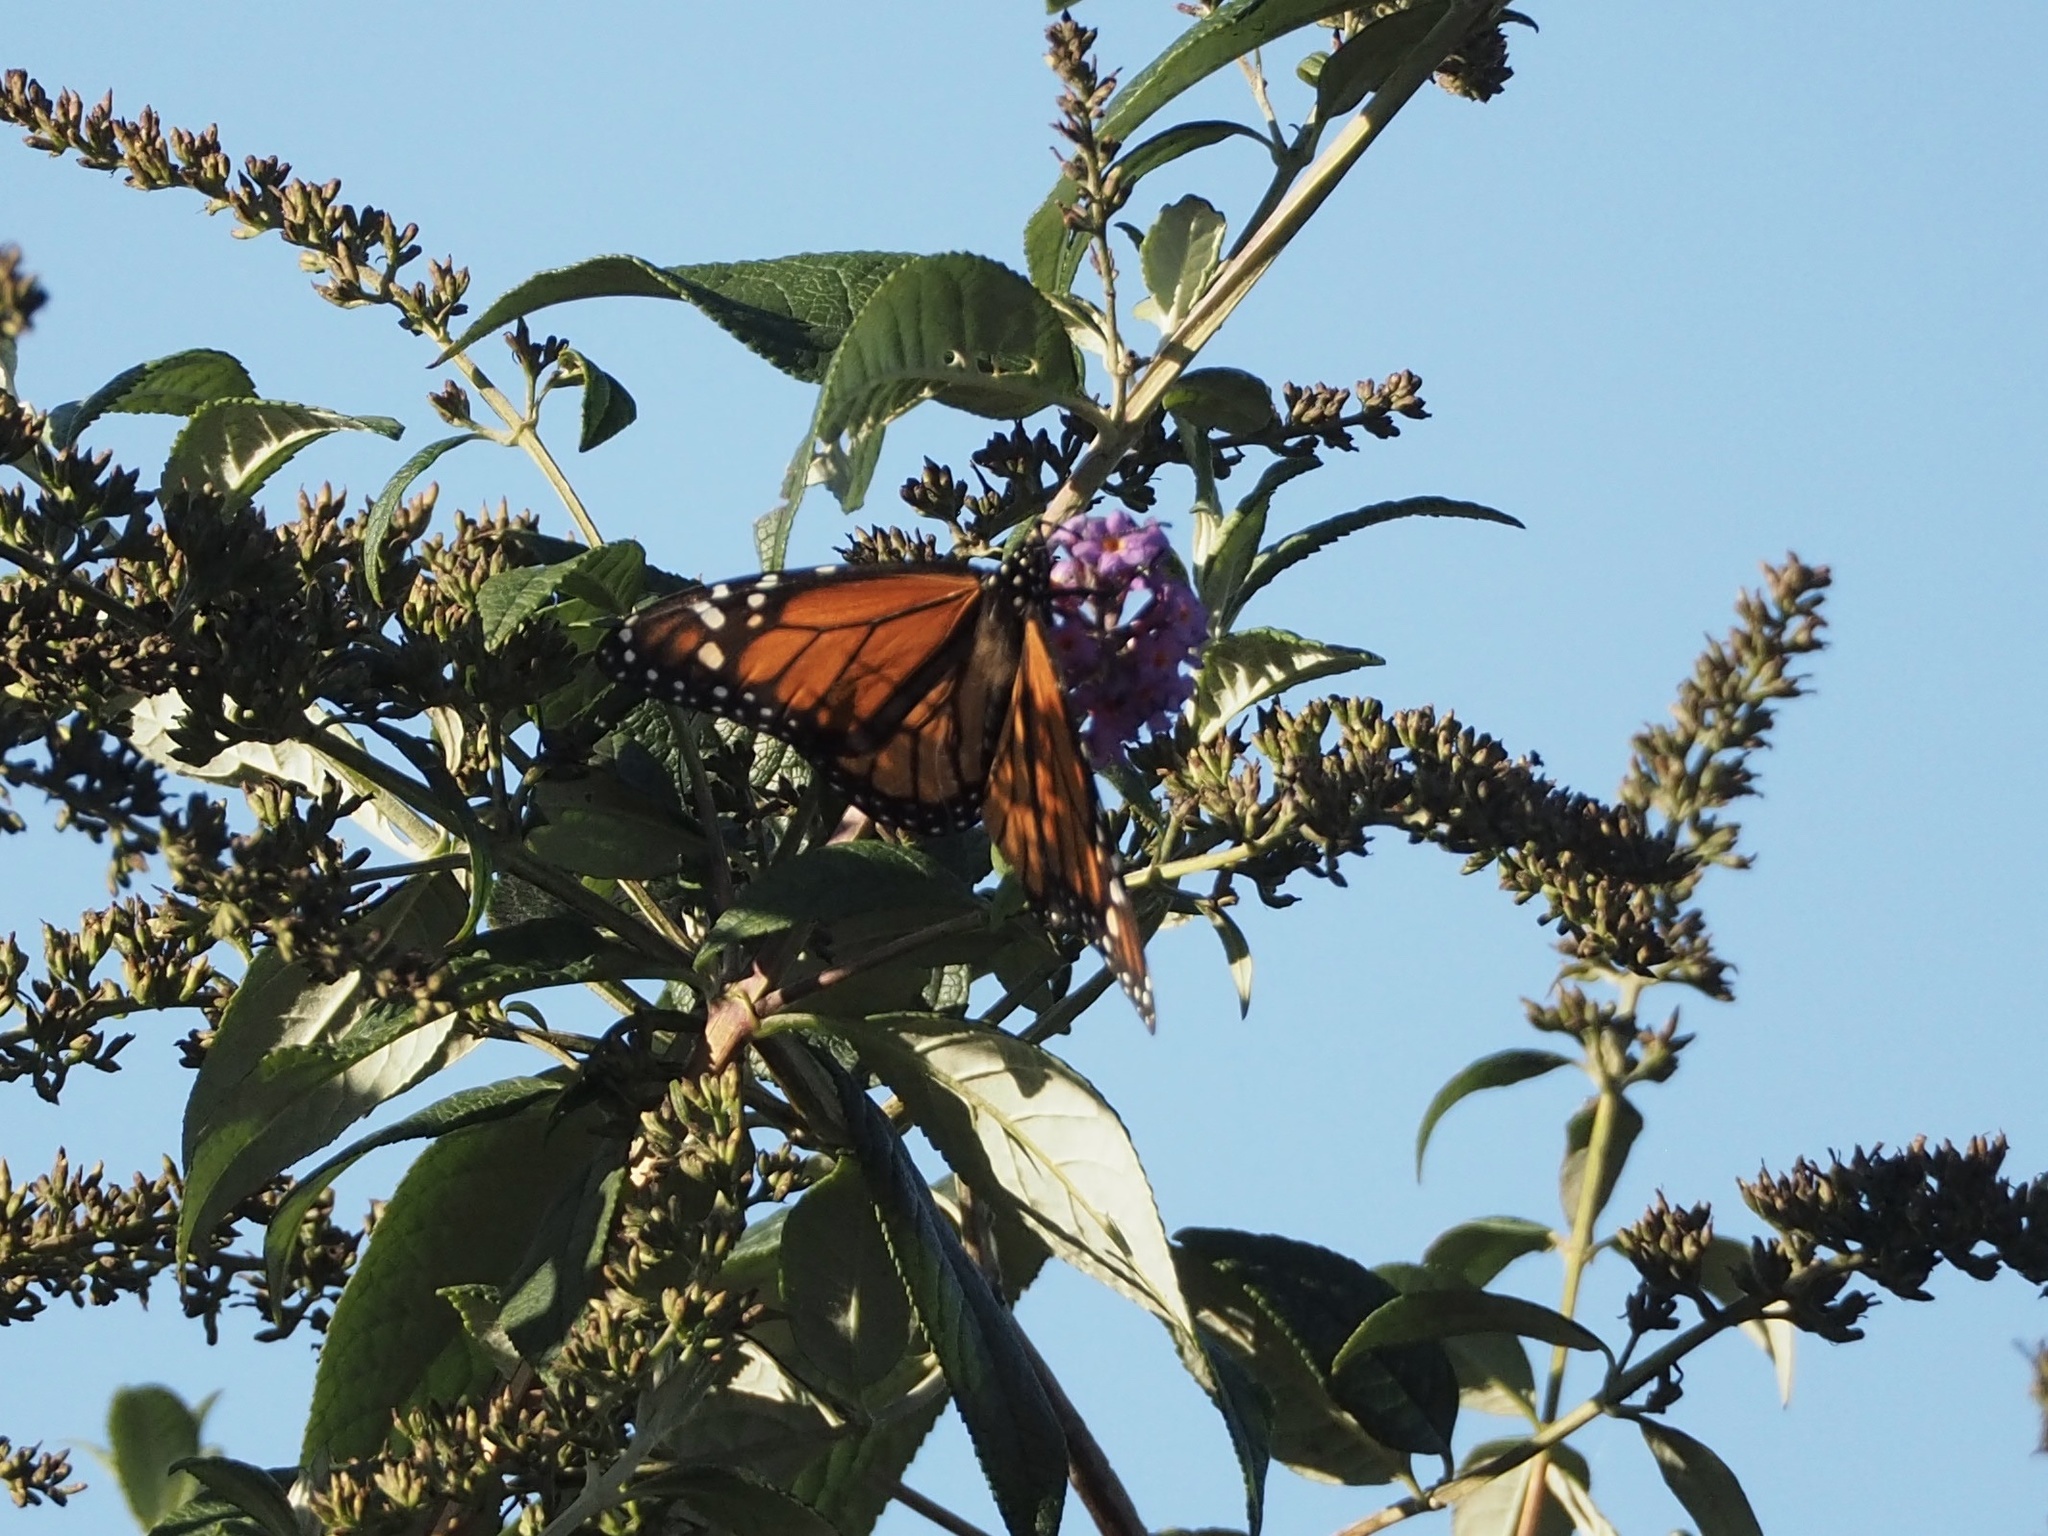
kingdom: Animalia
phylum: Arthropoda
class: Insecta
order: Lepidoptera
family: Nymphalidae
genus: Danaus
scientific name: Danaus plexippus
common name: Monarch
